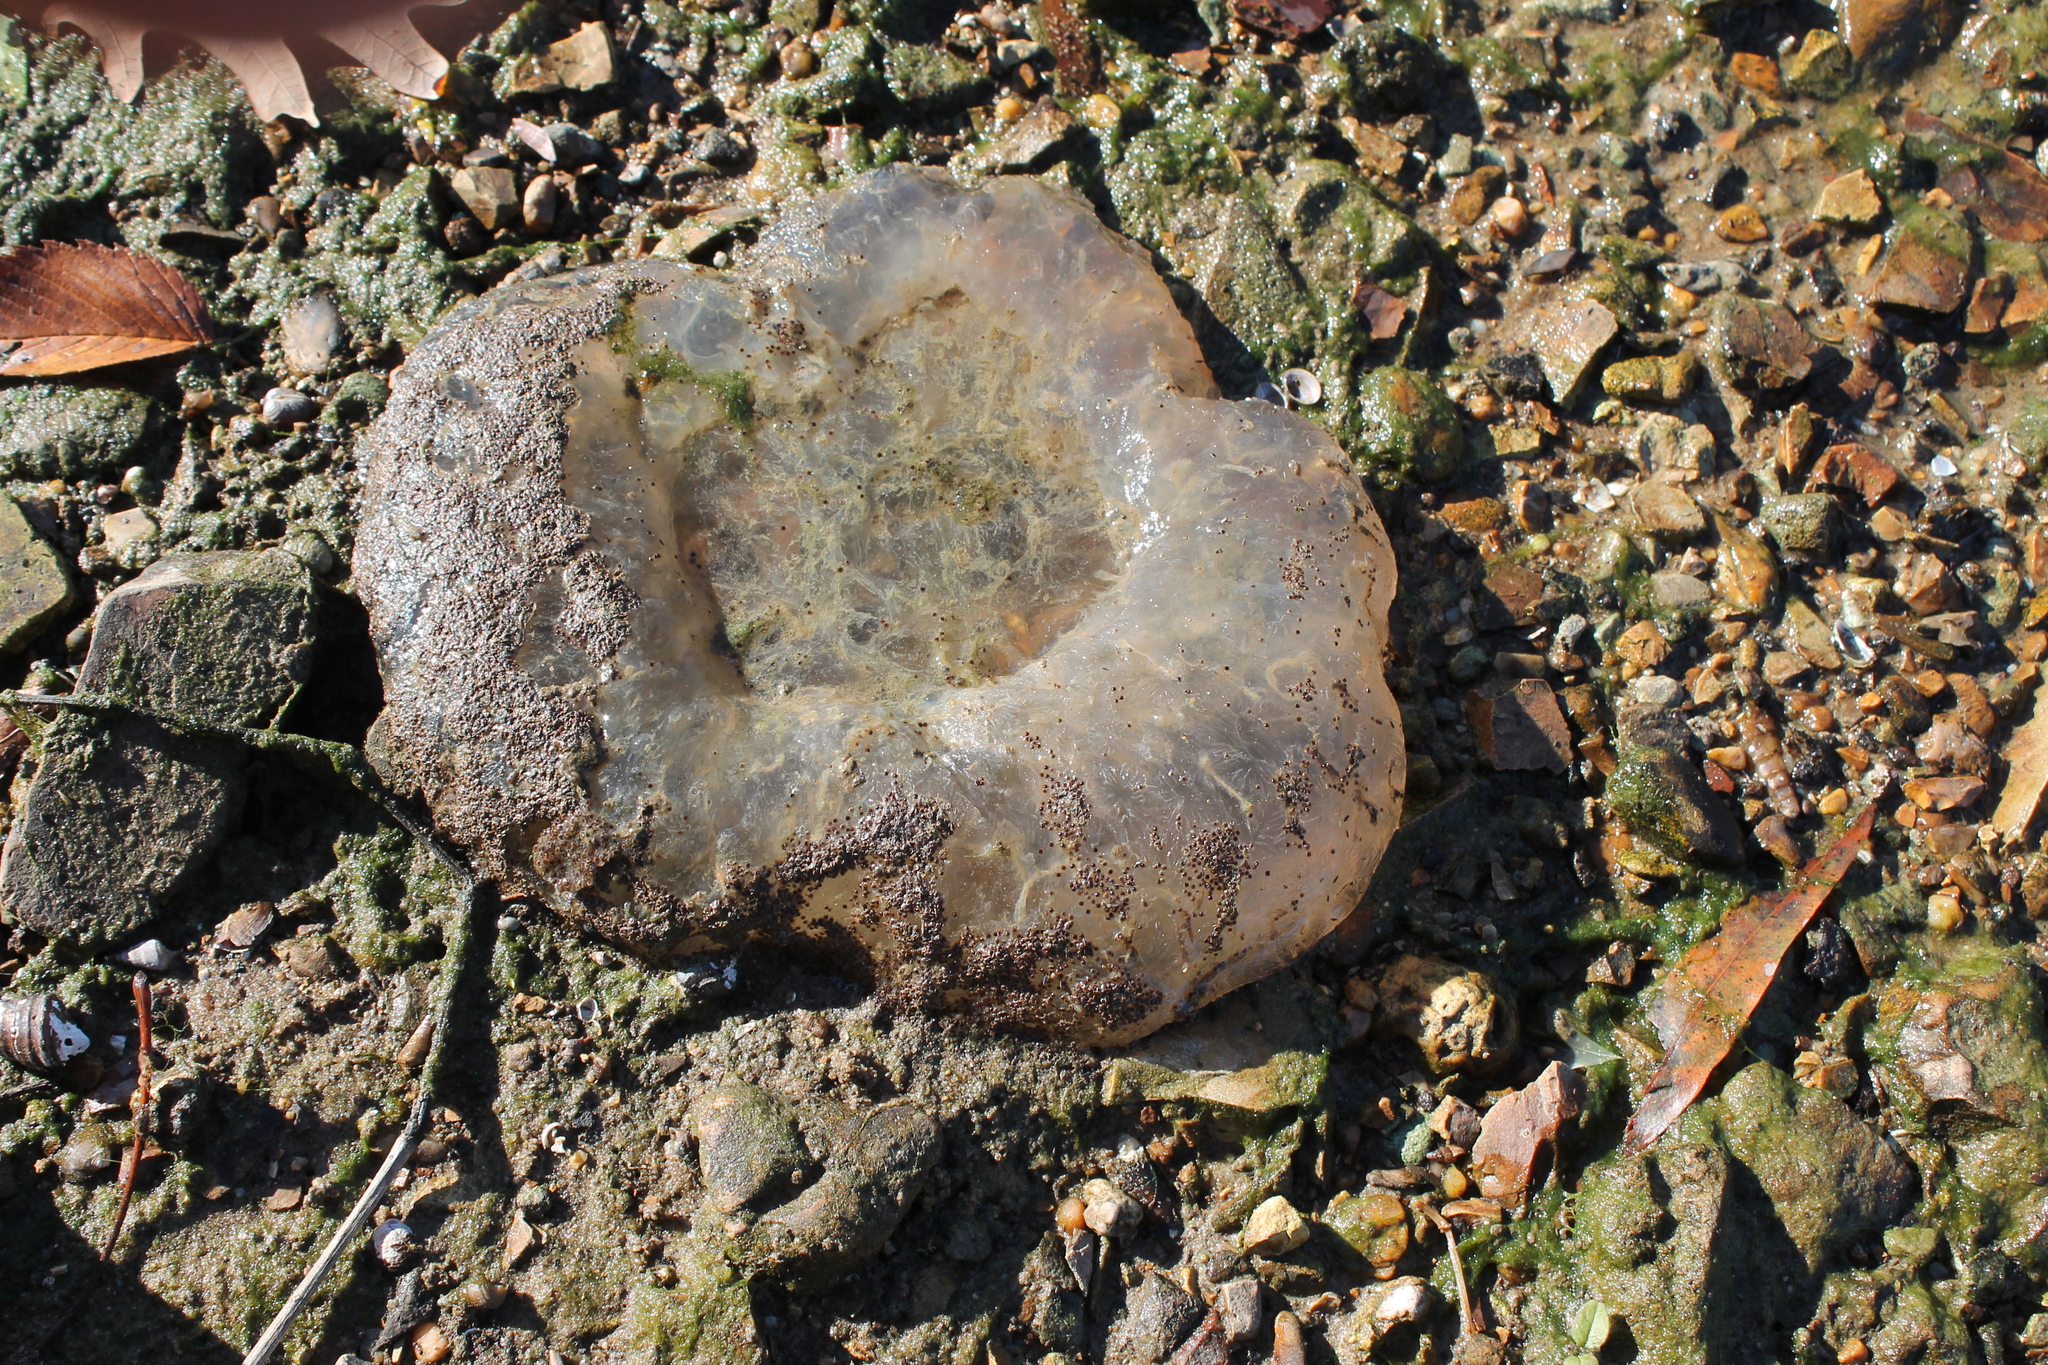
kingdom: Animalia
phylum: Bryozoa
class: Phylactolaemata
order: Plumatellida
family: Pectinatellidae
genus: Pectinatella
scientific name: Pectinatella magnifica
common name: Magnificent bryozoan
